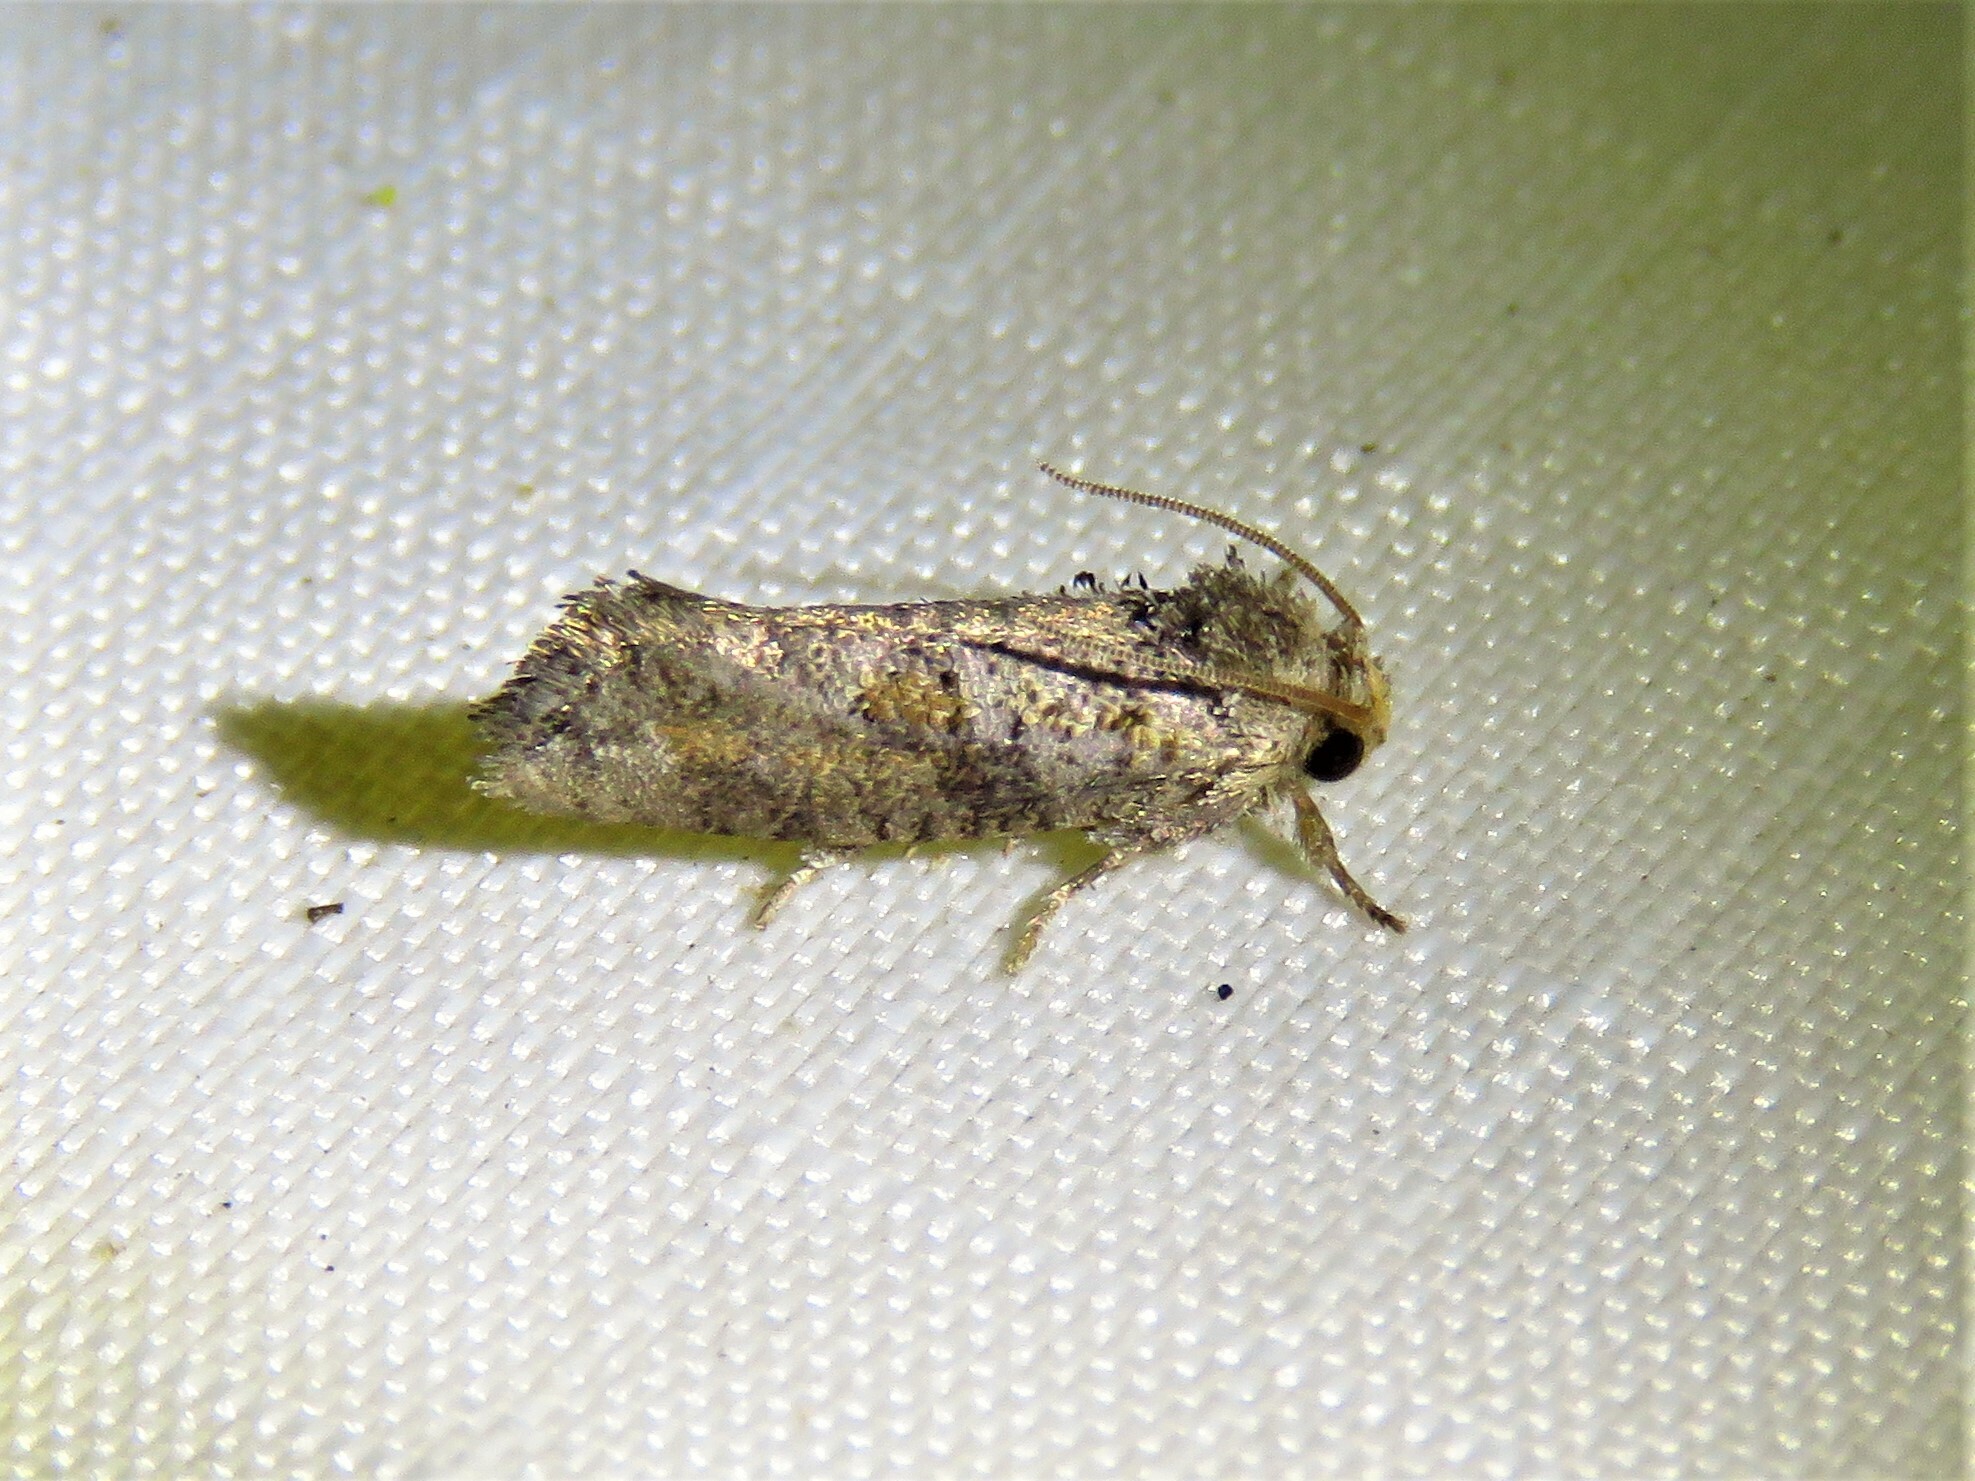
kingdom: Animalia
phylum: Arthropoda
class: Insecta
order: Lepidoptera
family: Tineidae
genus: Acrolophus
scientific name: Acrolophus piger
